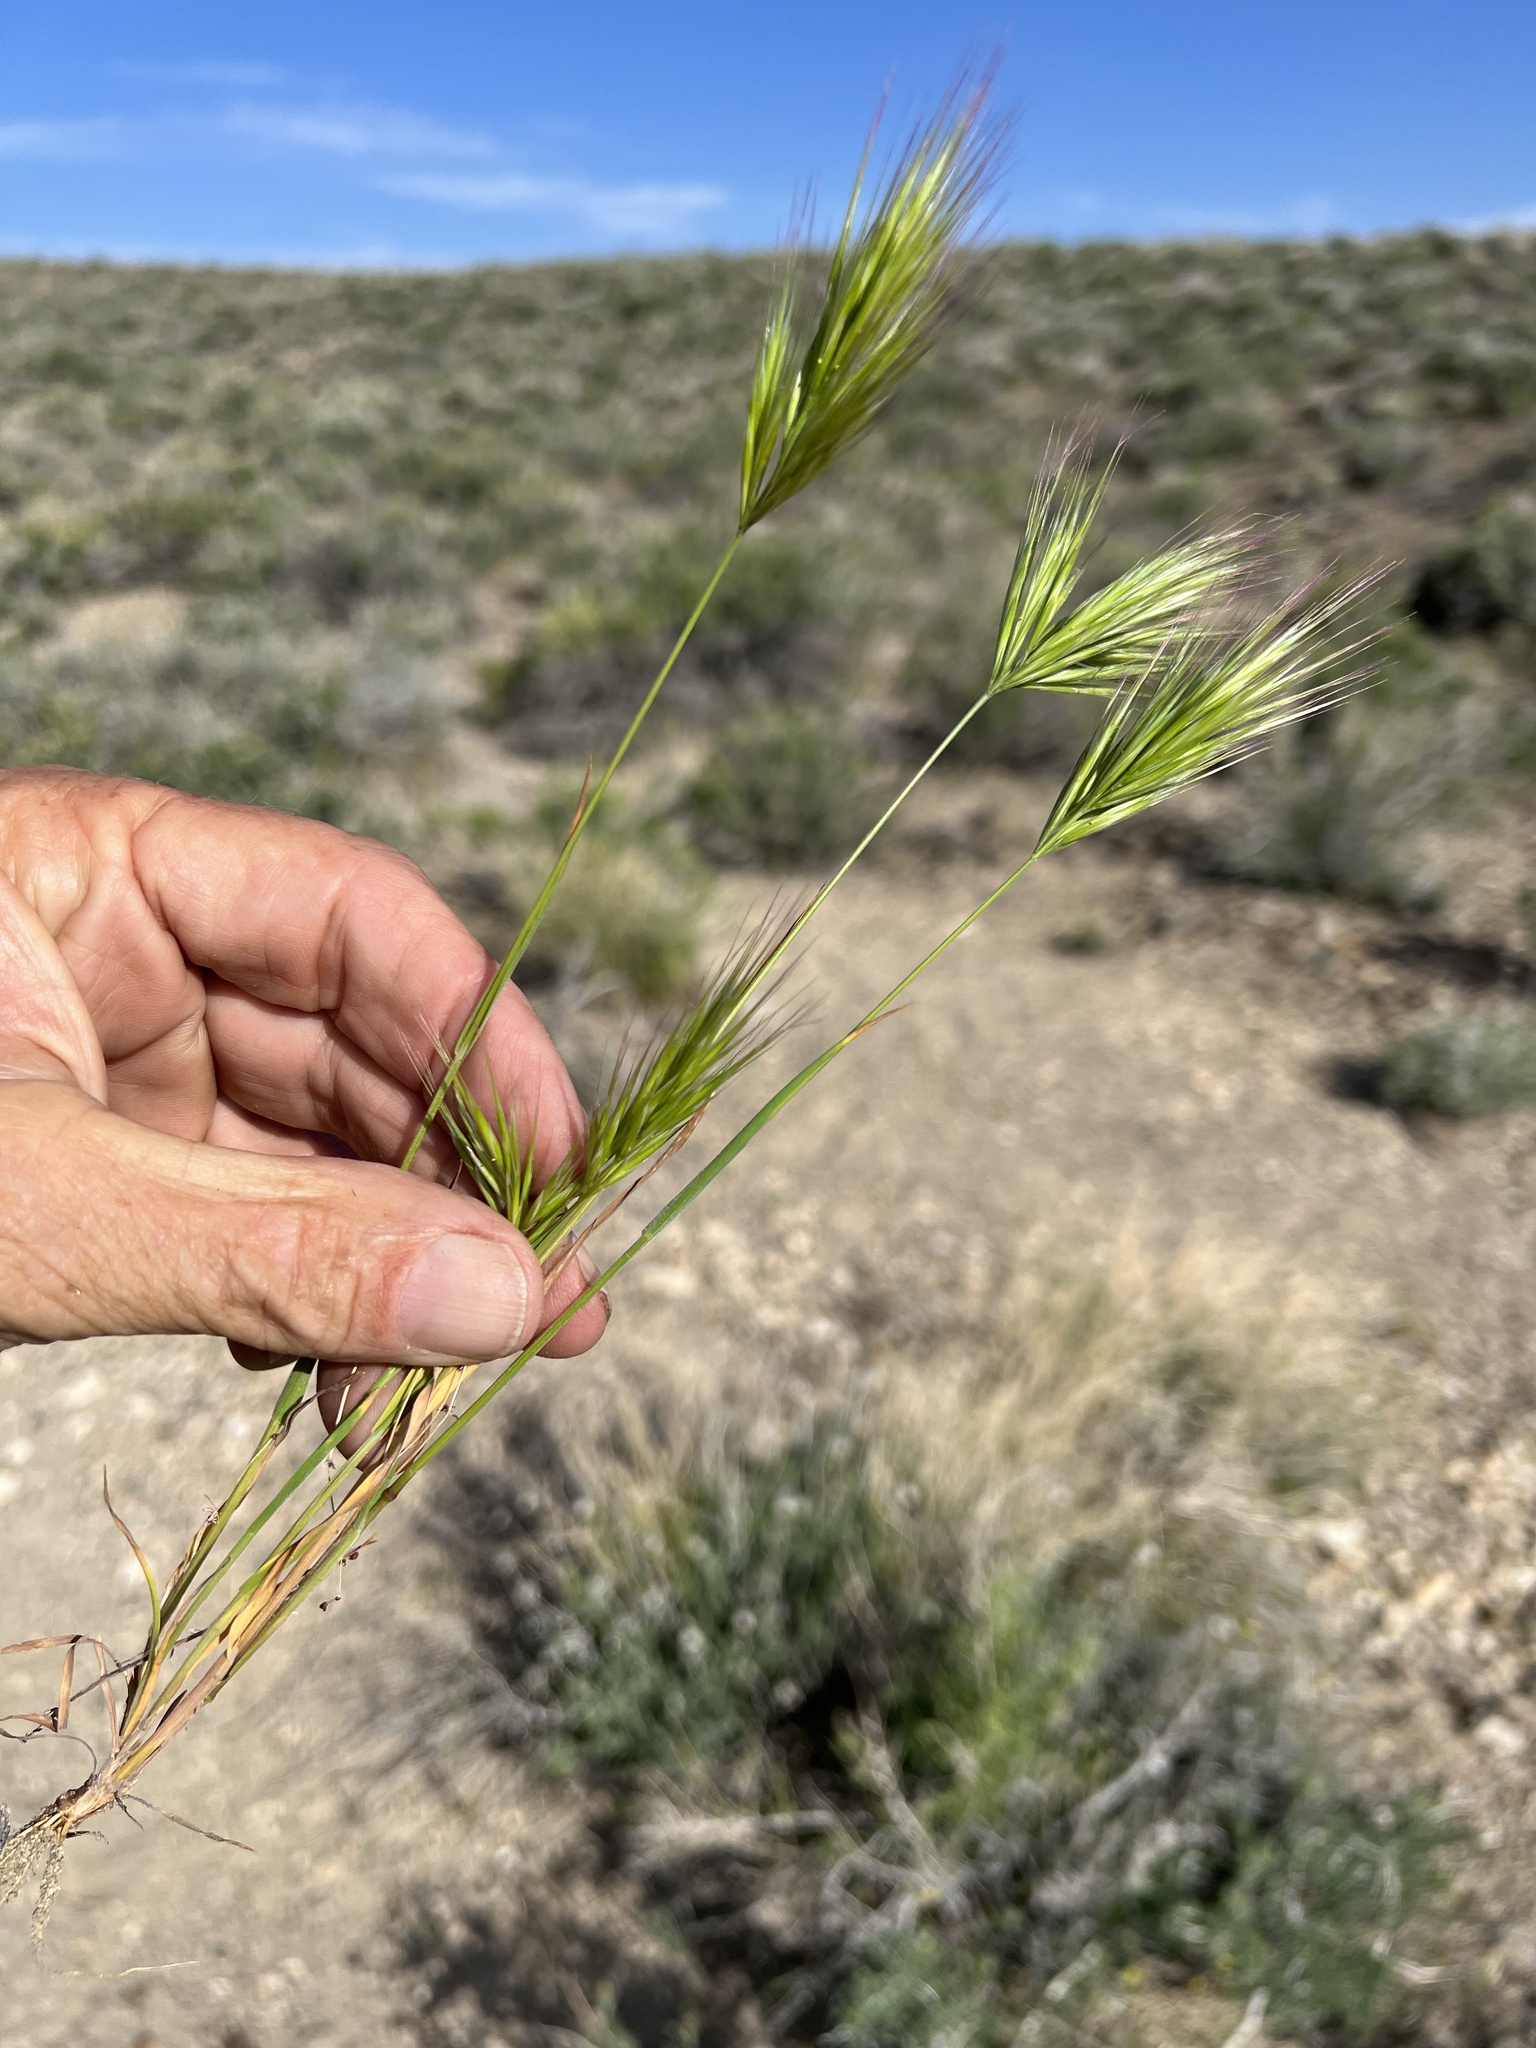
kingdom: Plantae
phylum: Tracheophyta
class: Liliopsida
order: Poales
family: Poaceae
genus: Bromus
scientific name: Bromus rubens
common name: Red brome
